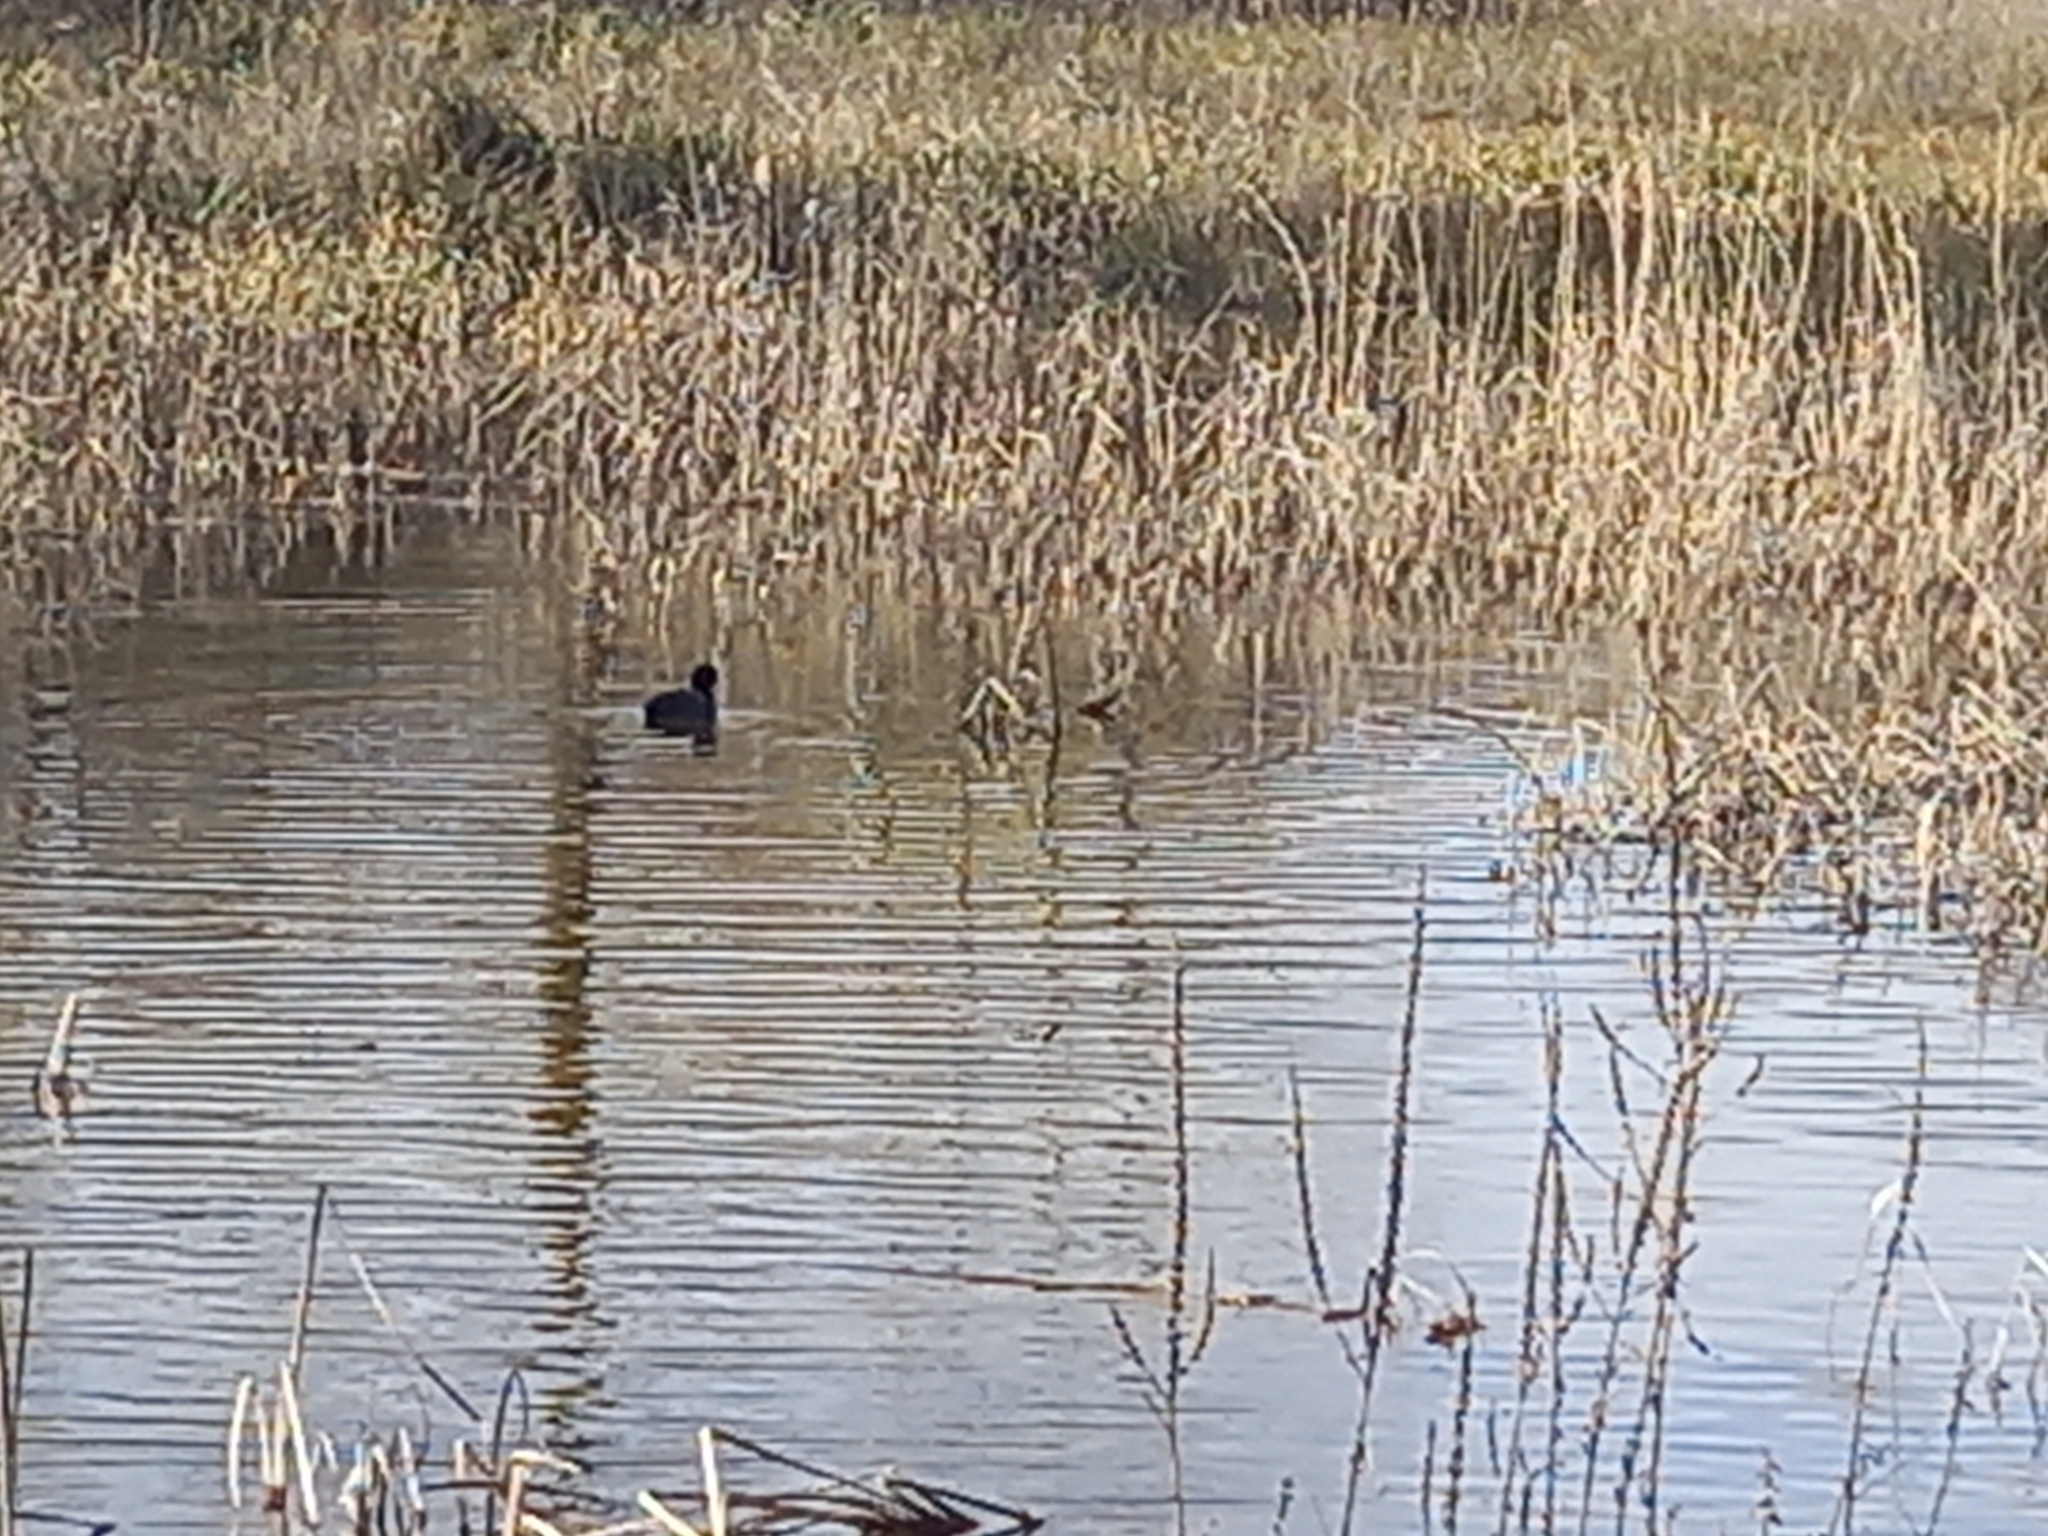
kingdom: Animalia
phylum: Chordata
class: Aves
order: Gruiformes
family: Rallidae
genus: Fulica
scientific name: Fulica atra
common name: Eurasian coot
